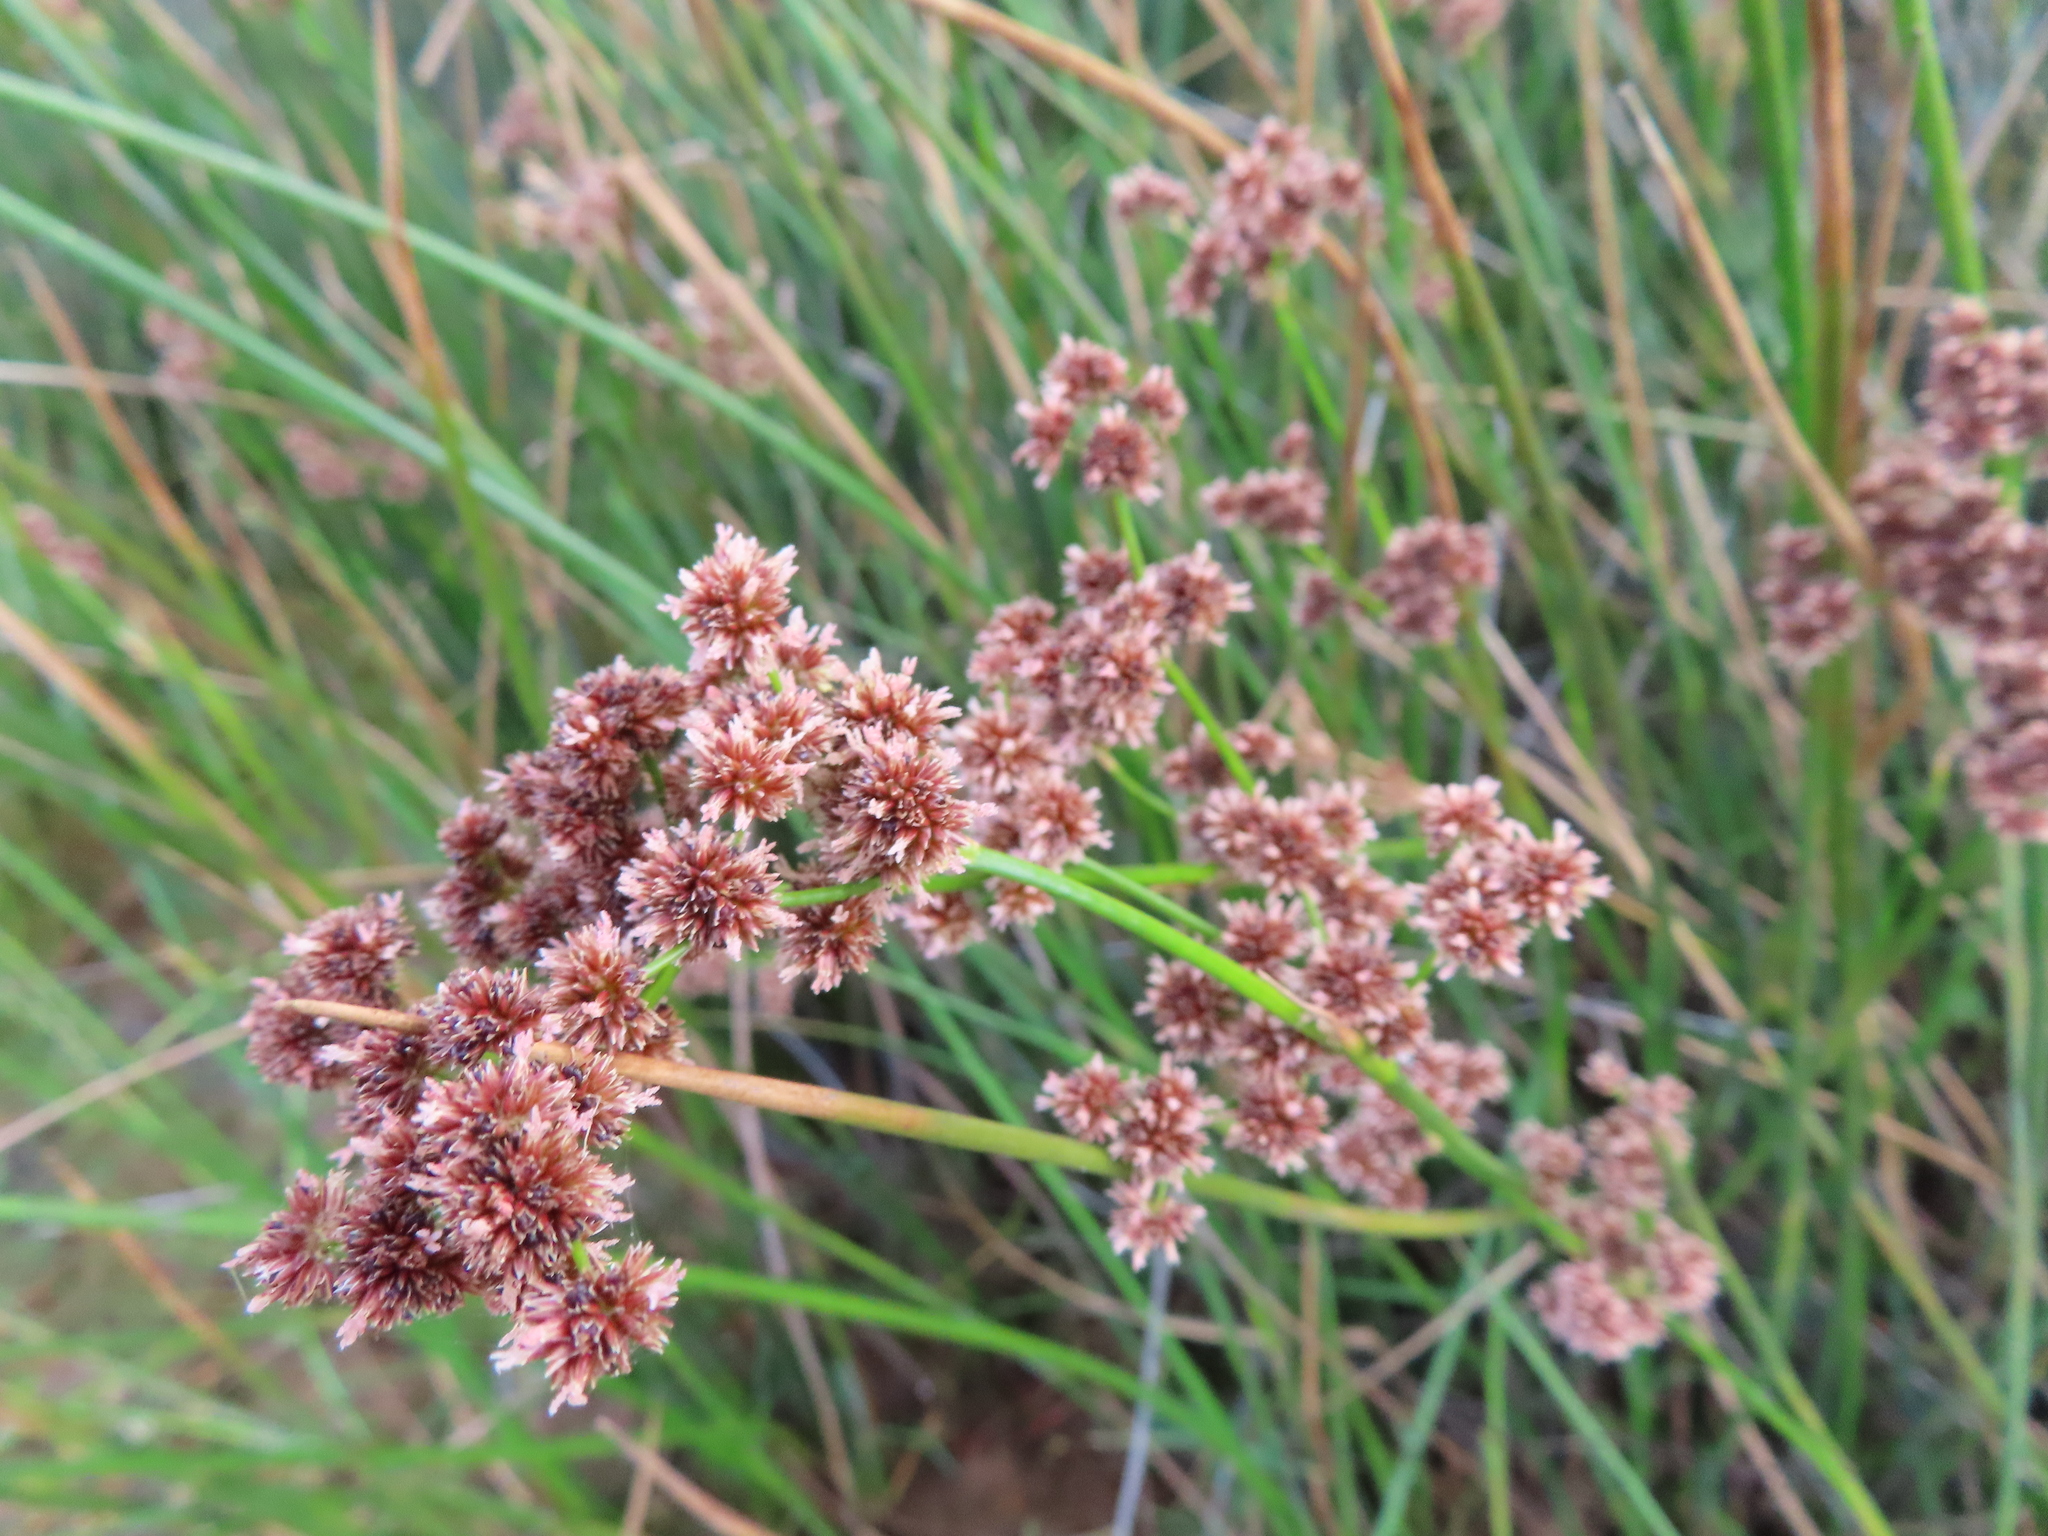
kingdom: Plantae
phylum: Tracheophyta
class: Liliopsida
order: Poales
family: Juncaceae
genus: Juncus
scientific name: Juncus oxycarpus
